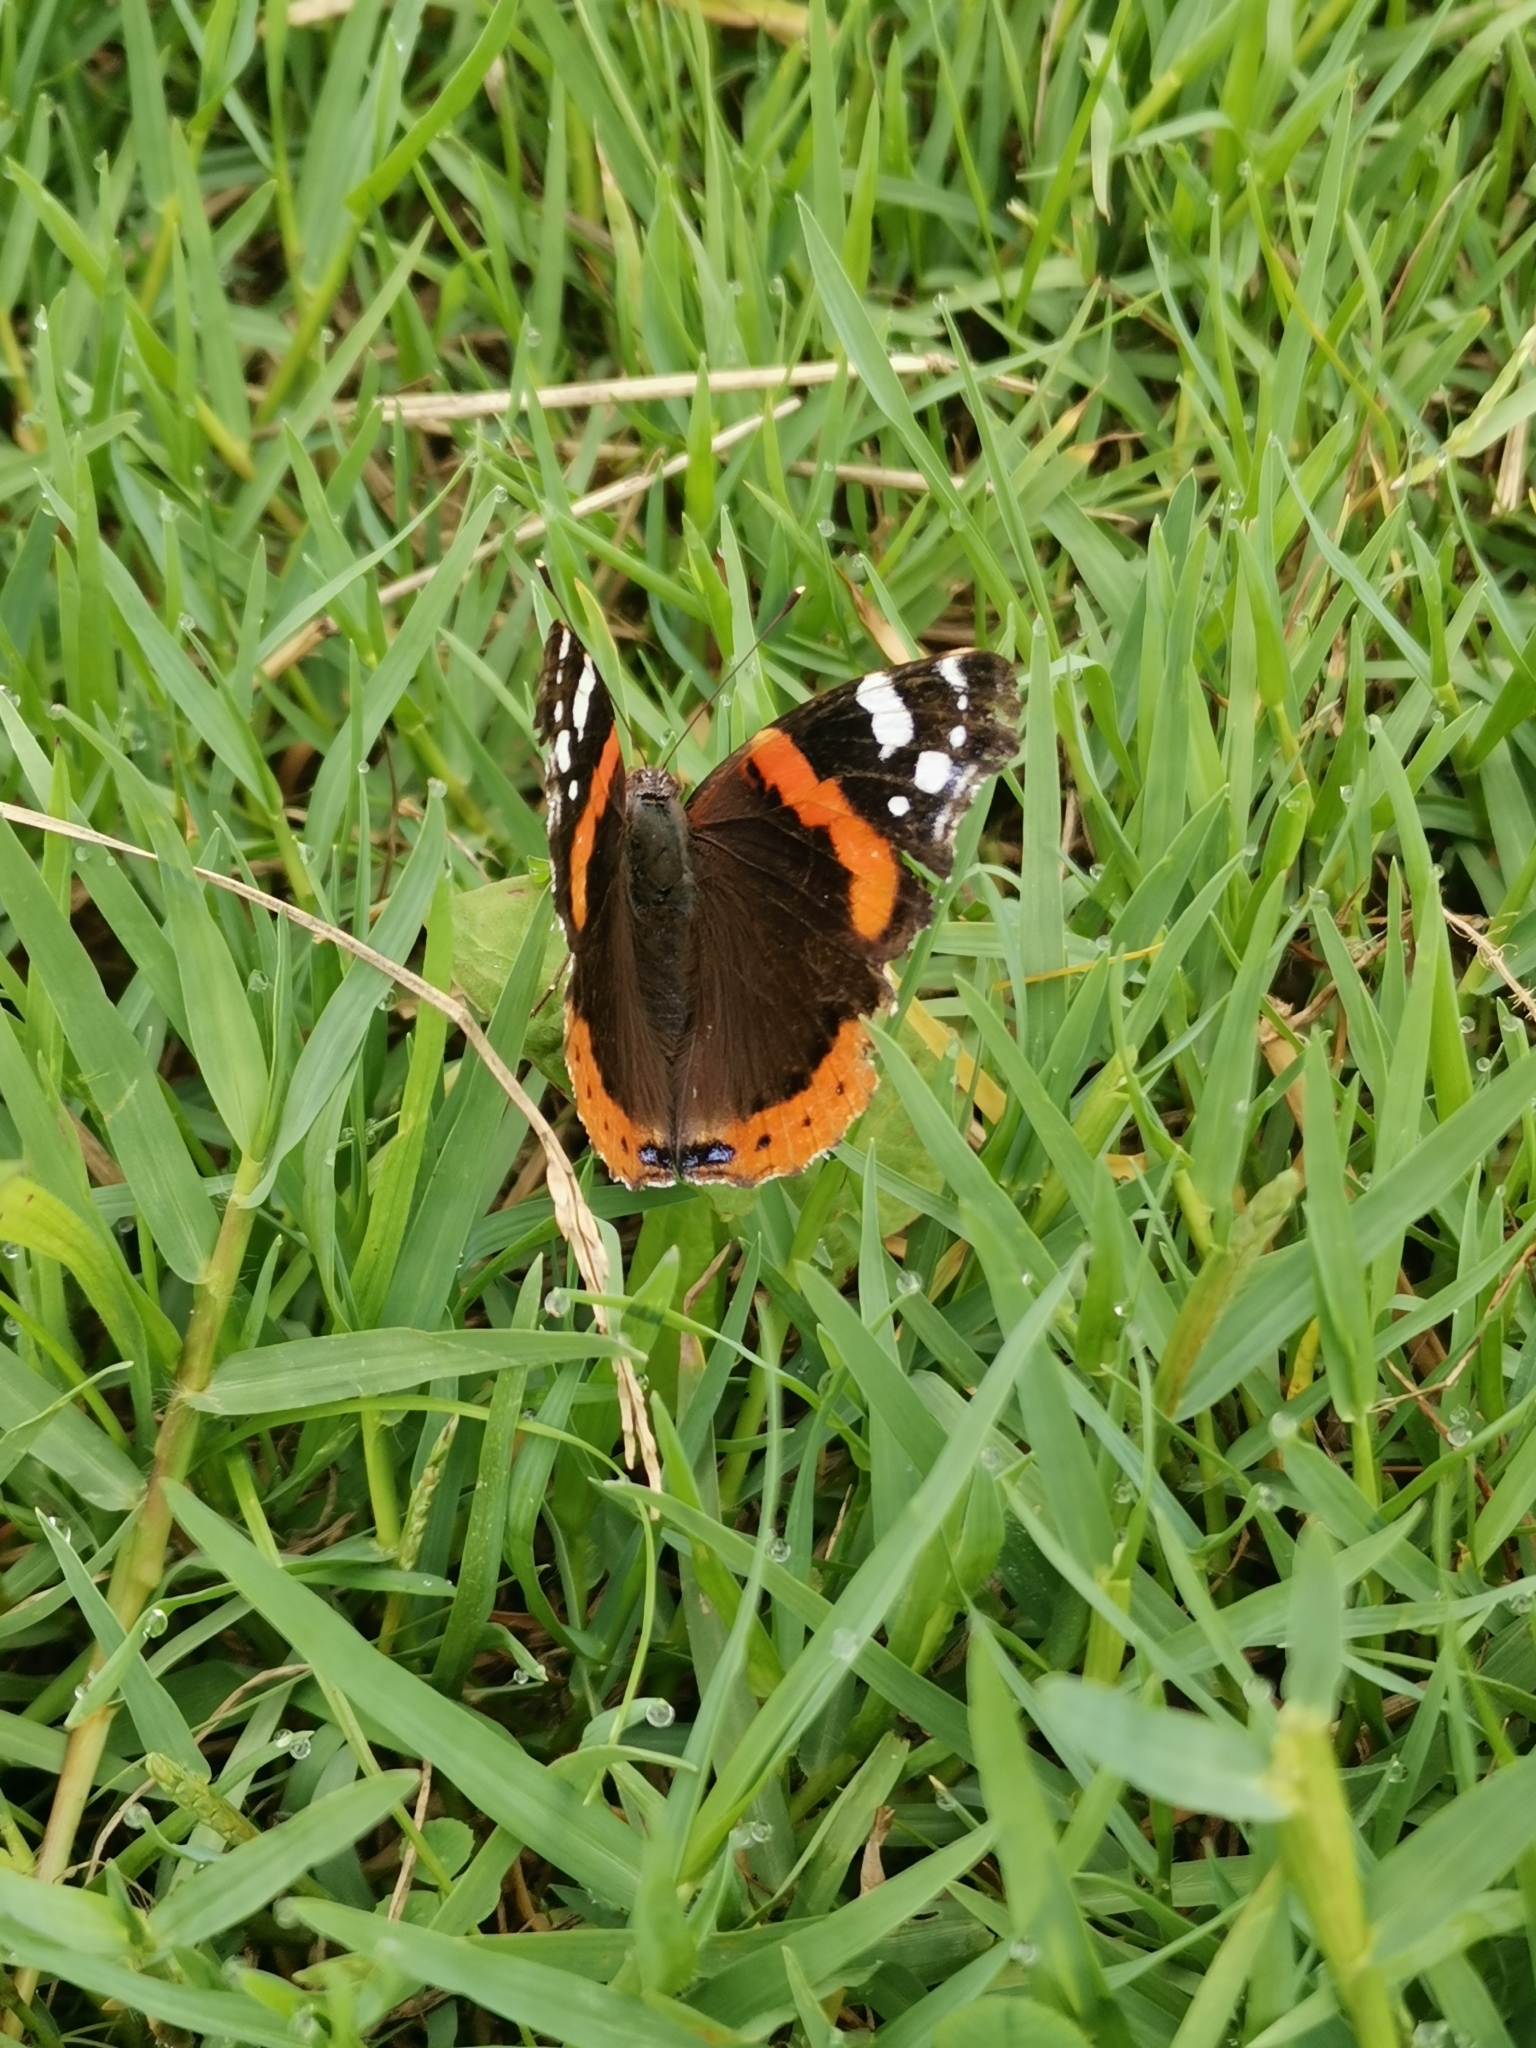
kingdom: Animalia
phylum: Arthropoda
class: Insecta
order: Lepidoptera
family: Nymphalidae
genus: Vanessa
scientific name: Vanessa atalanta
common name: Red admiral
